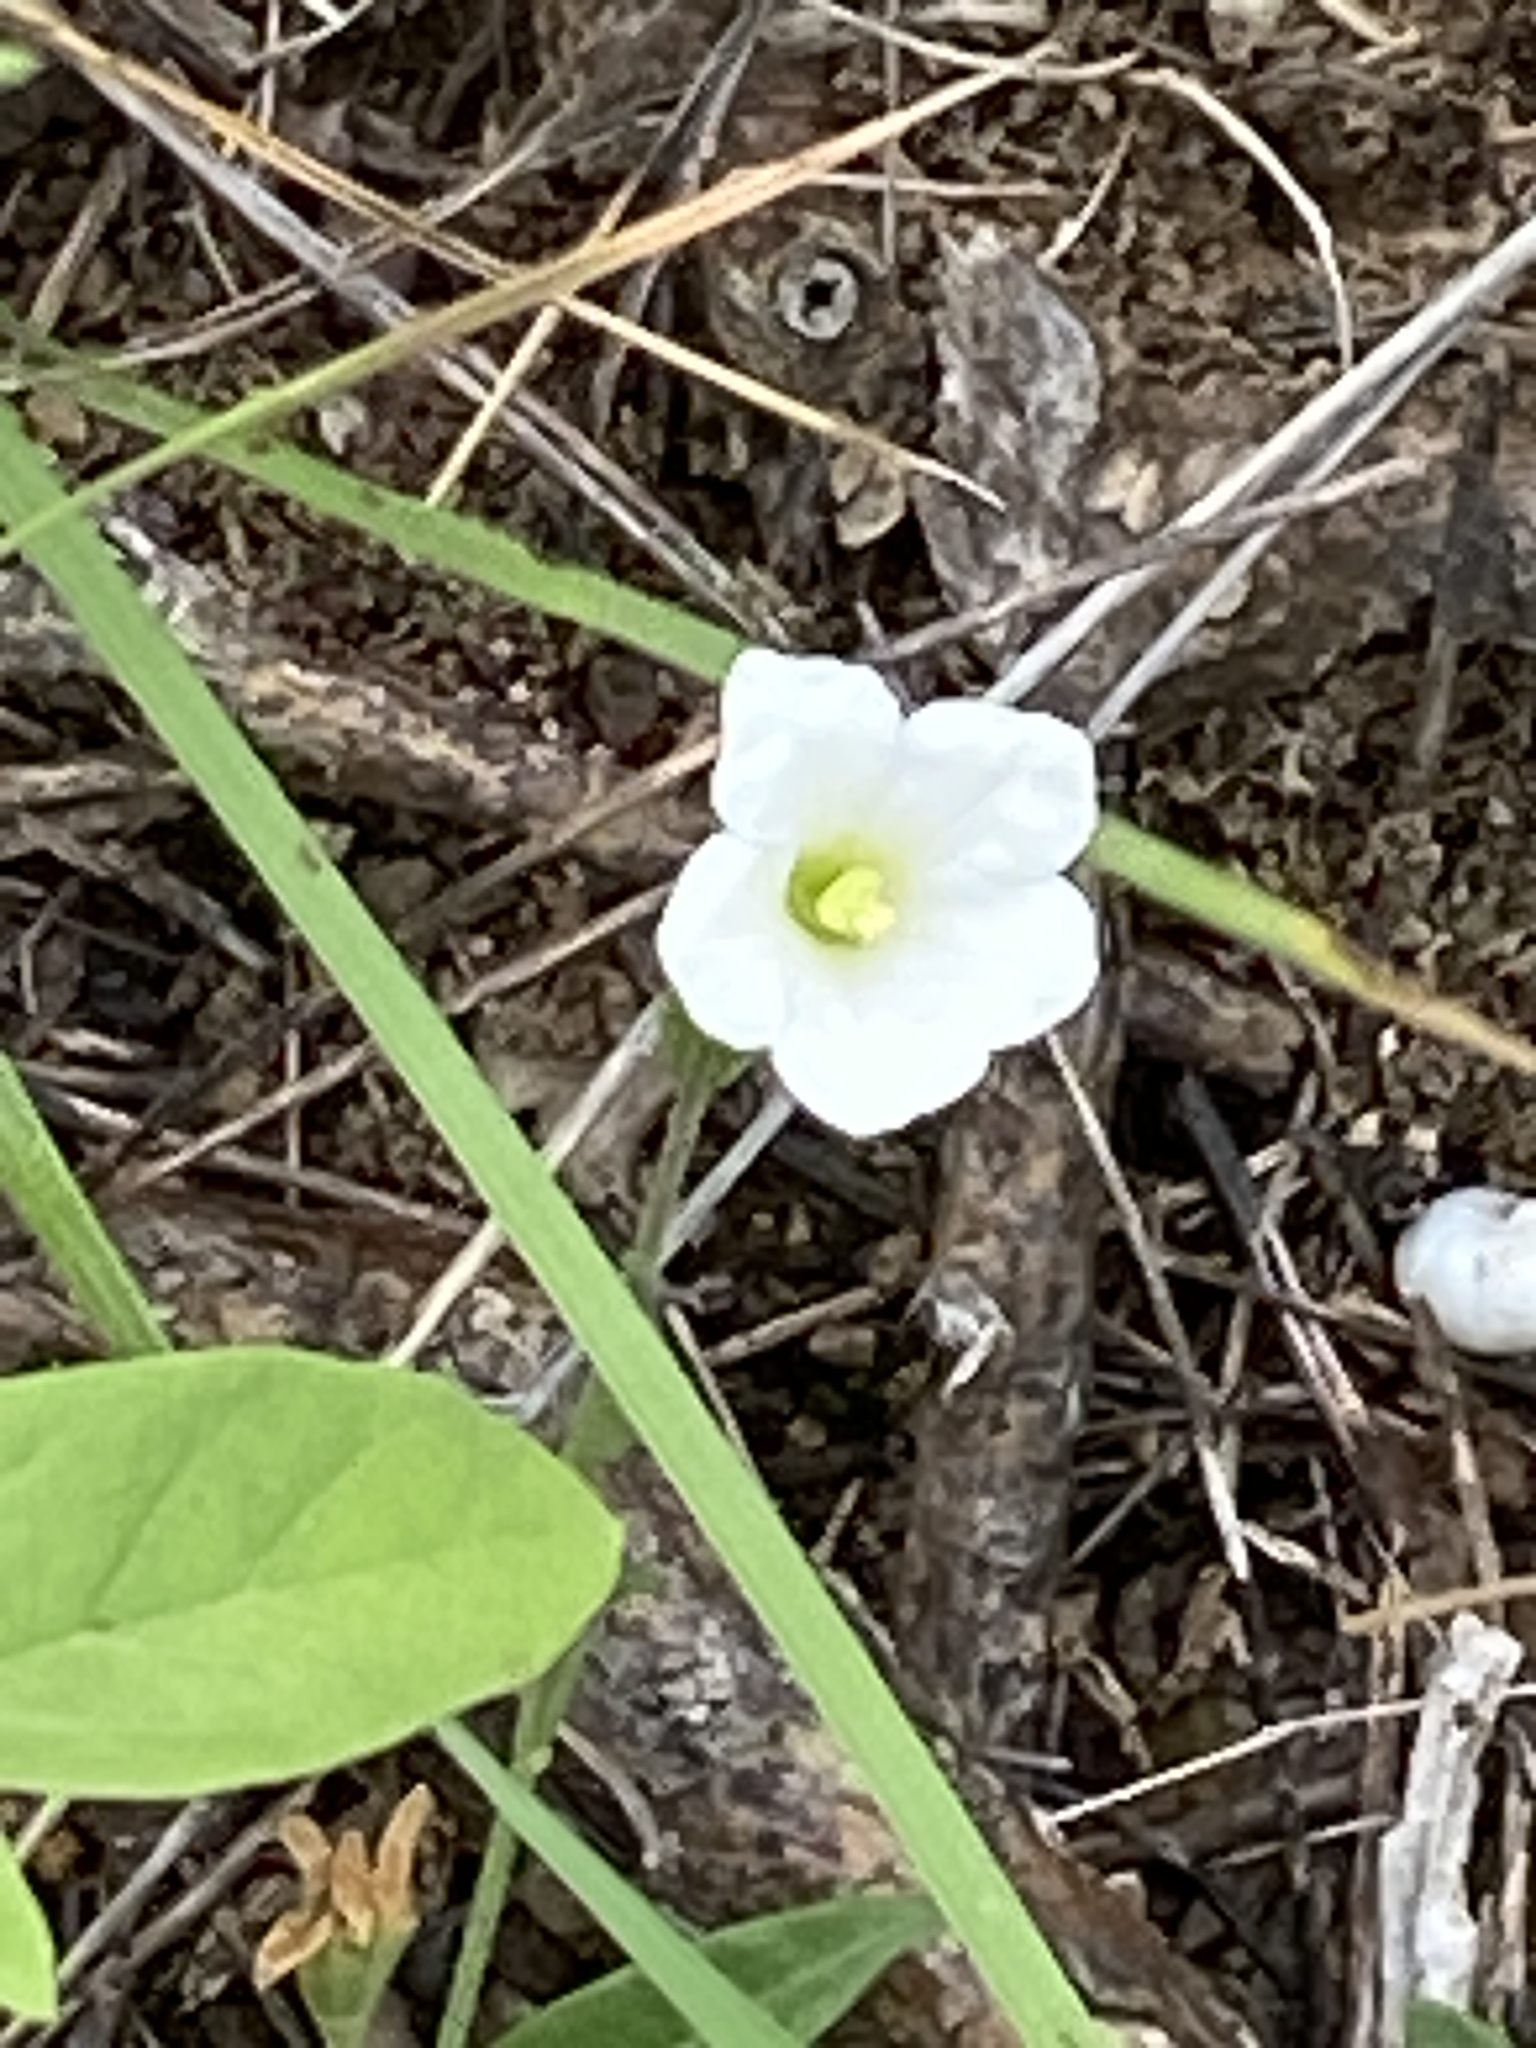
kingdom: Plantae
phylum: Tracheophyta
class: Magnoliopsida
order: Solanales
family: Solanaceae
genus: Salpiglossis
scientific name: Salpiglossis erecta
